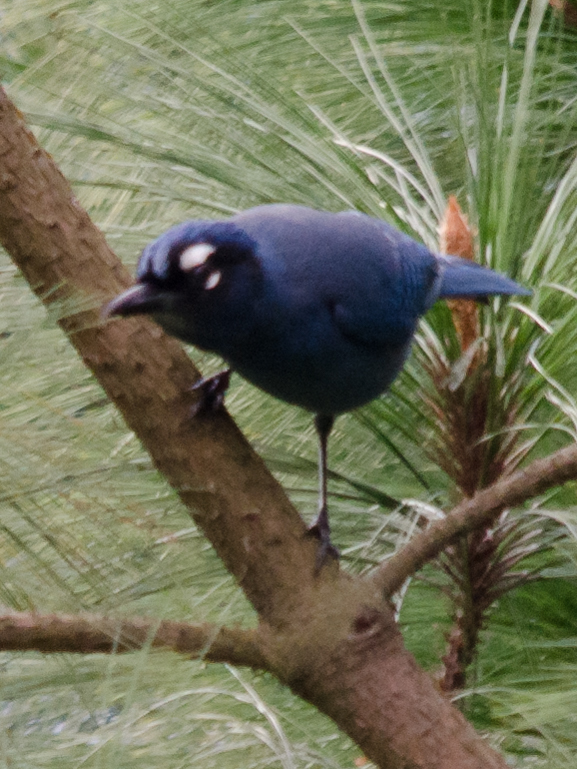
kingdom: Animalia
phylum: Chordata
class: Aves
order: Passeriformes
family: Corvidae
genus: Cyanocitta
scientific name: Cyanocitta stelleri
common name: Steller's jay
